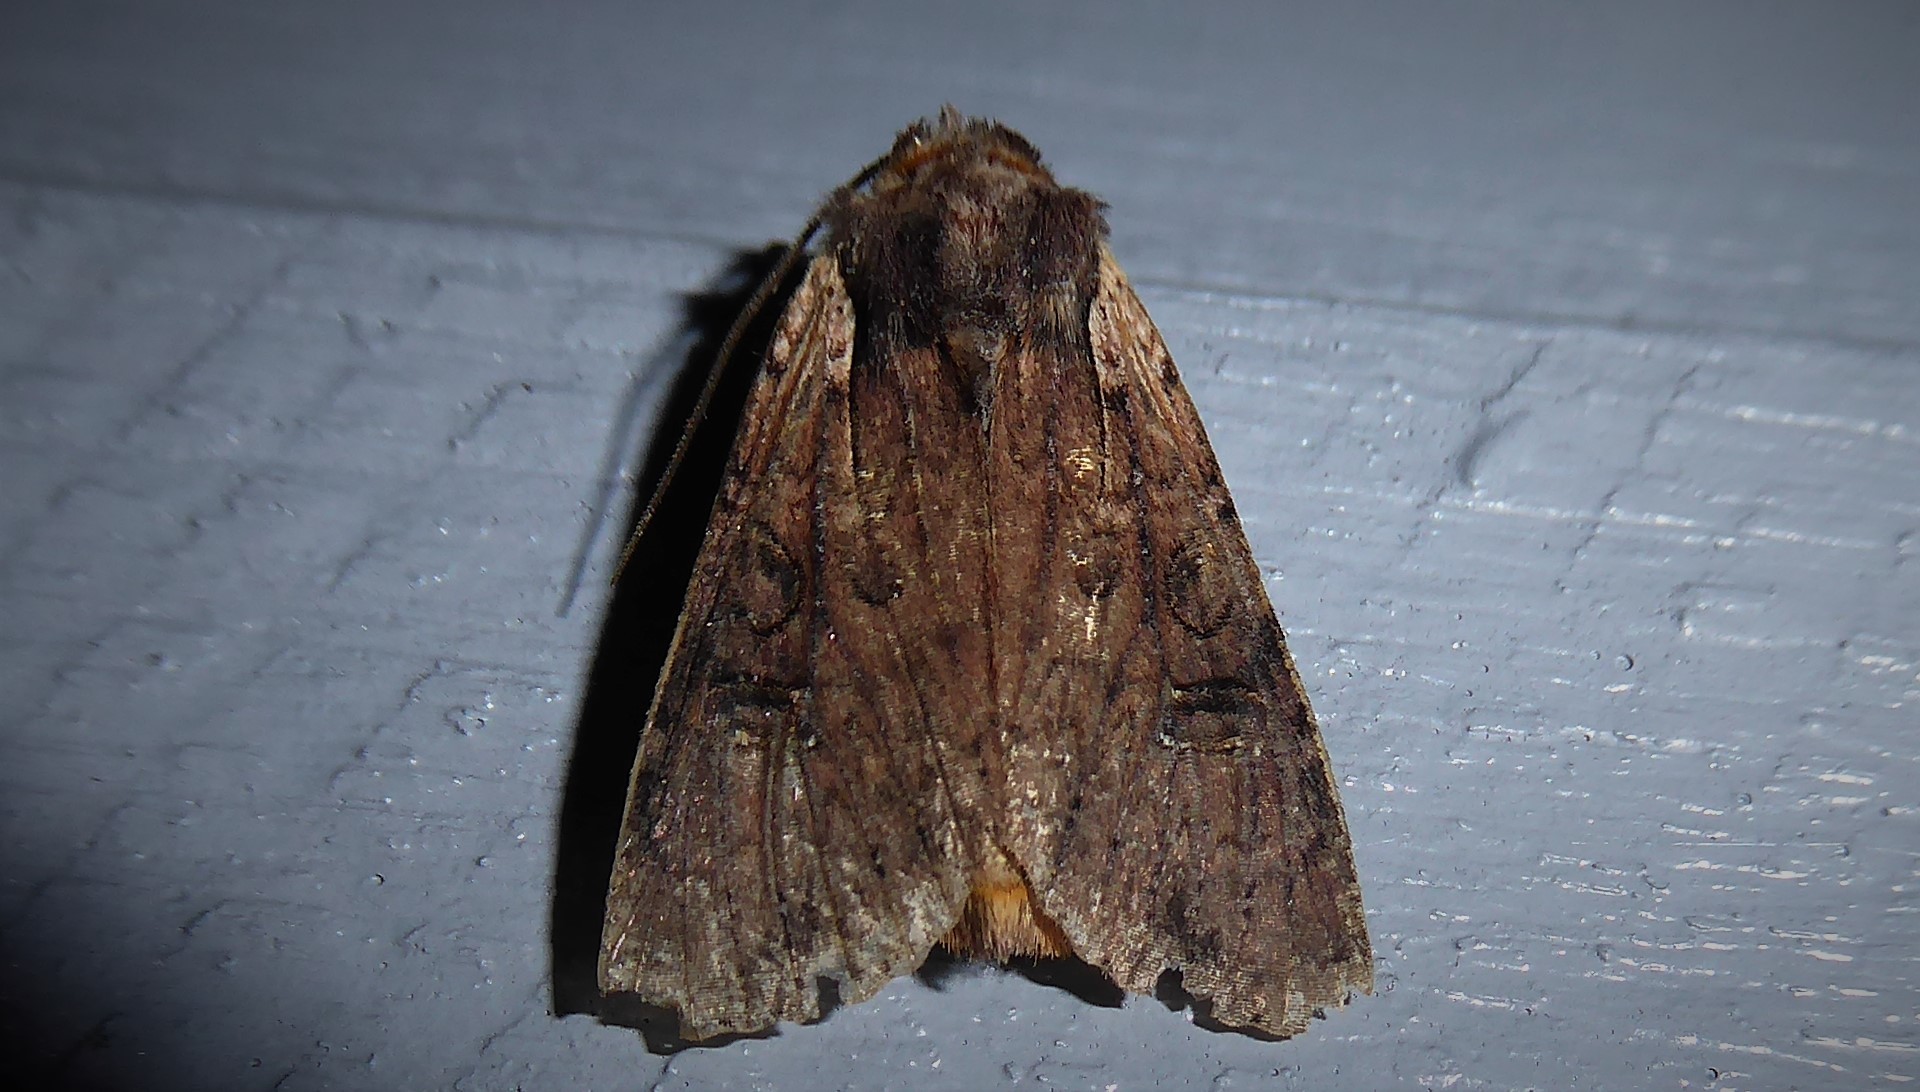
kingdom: Animalia
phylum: Arthropoda
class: Insecta
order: Lepidoptera
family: Noctuidae
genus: Ichneutica
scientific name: Ichneutica omoplaca
